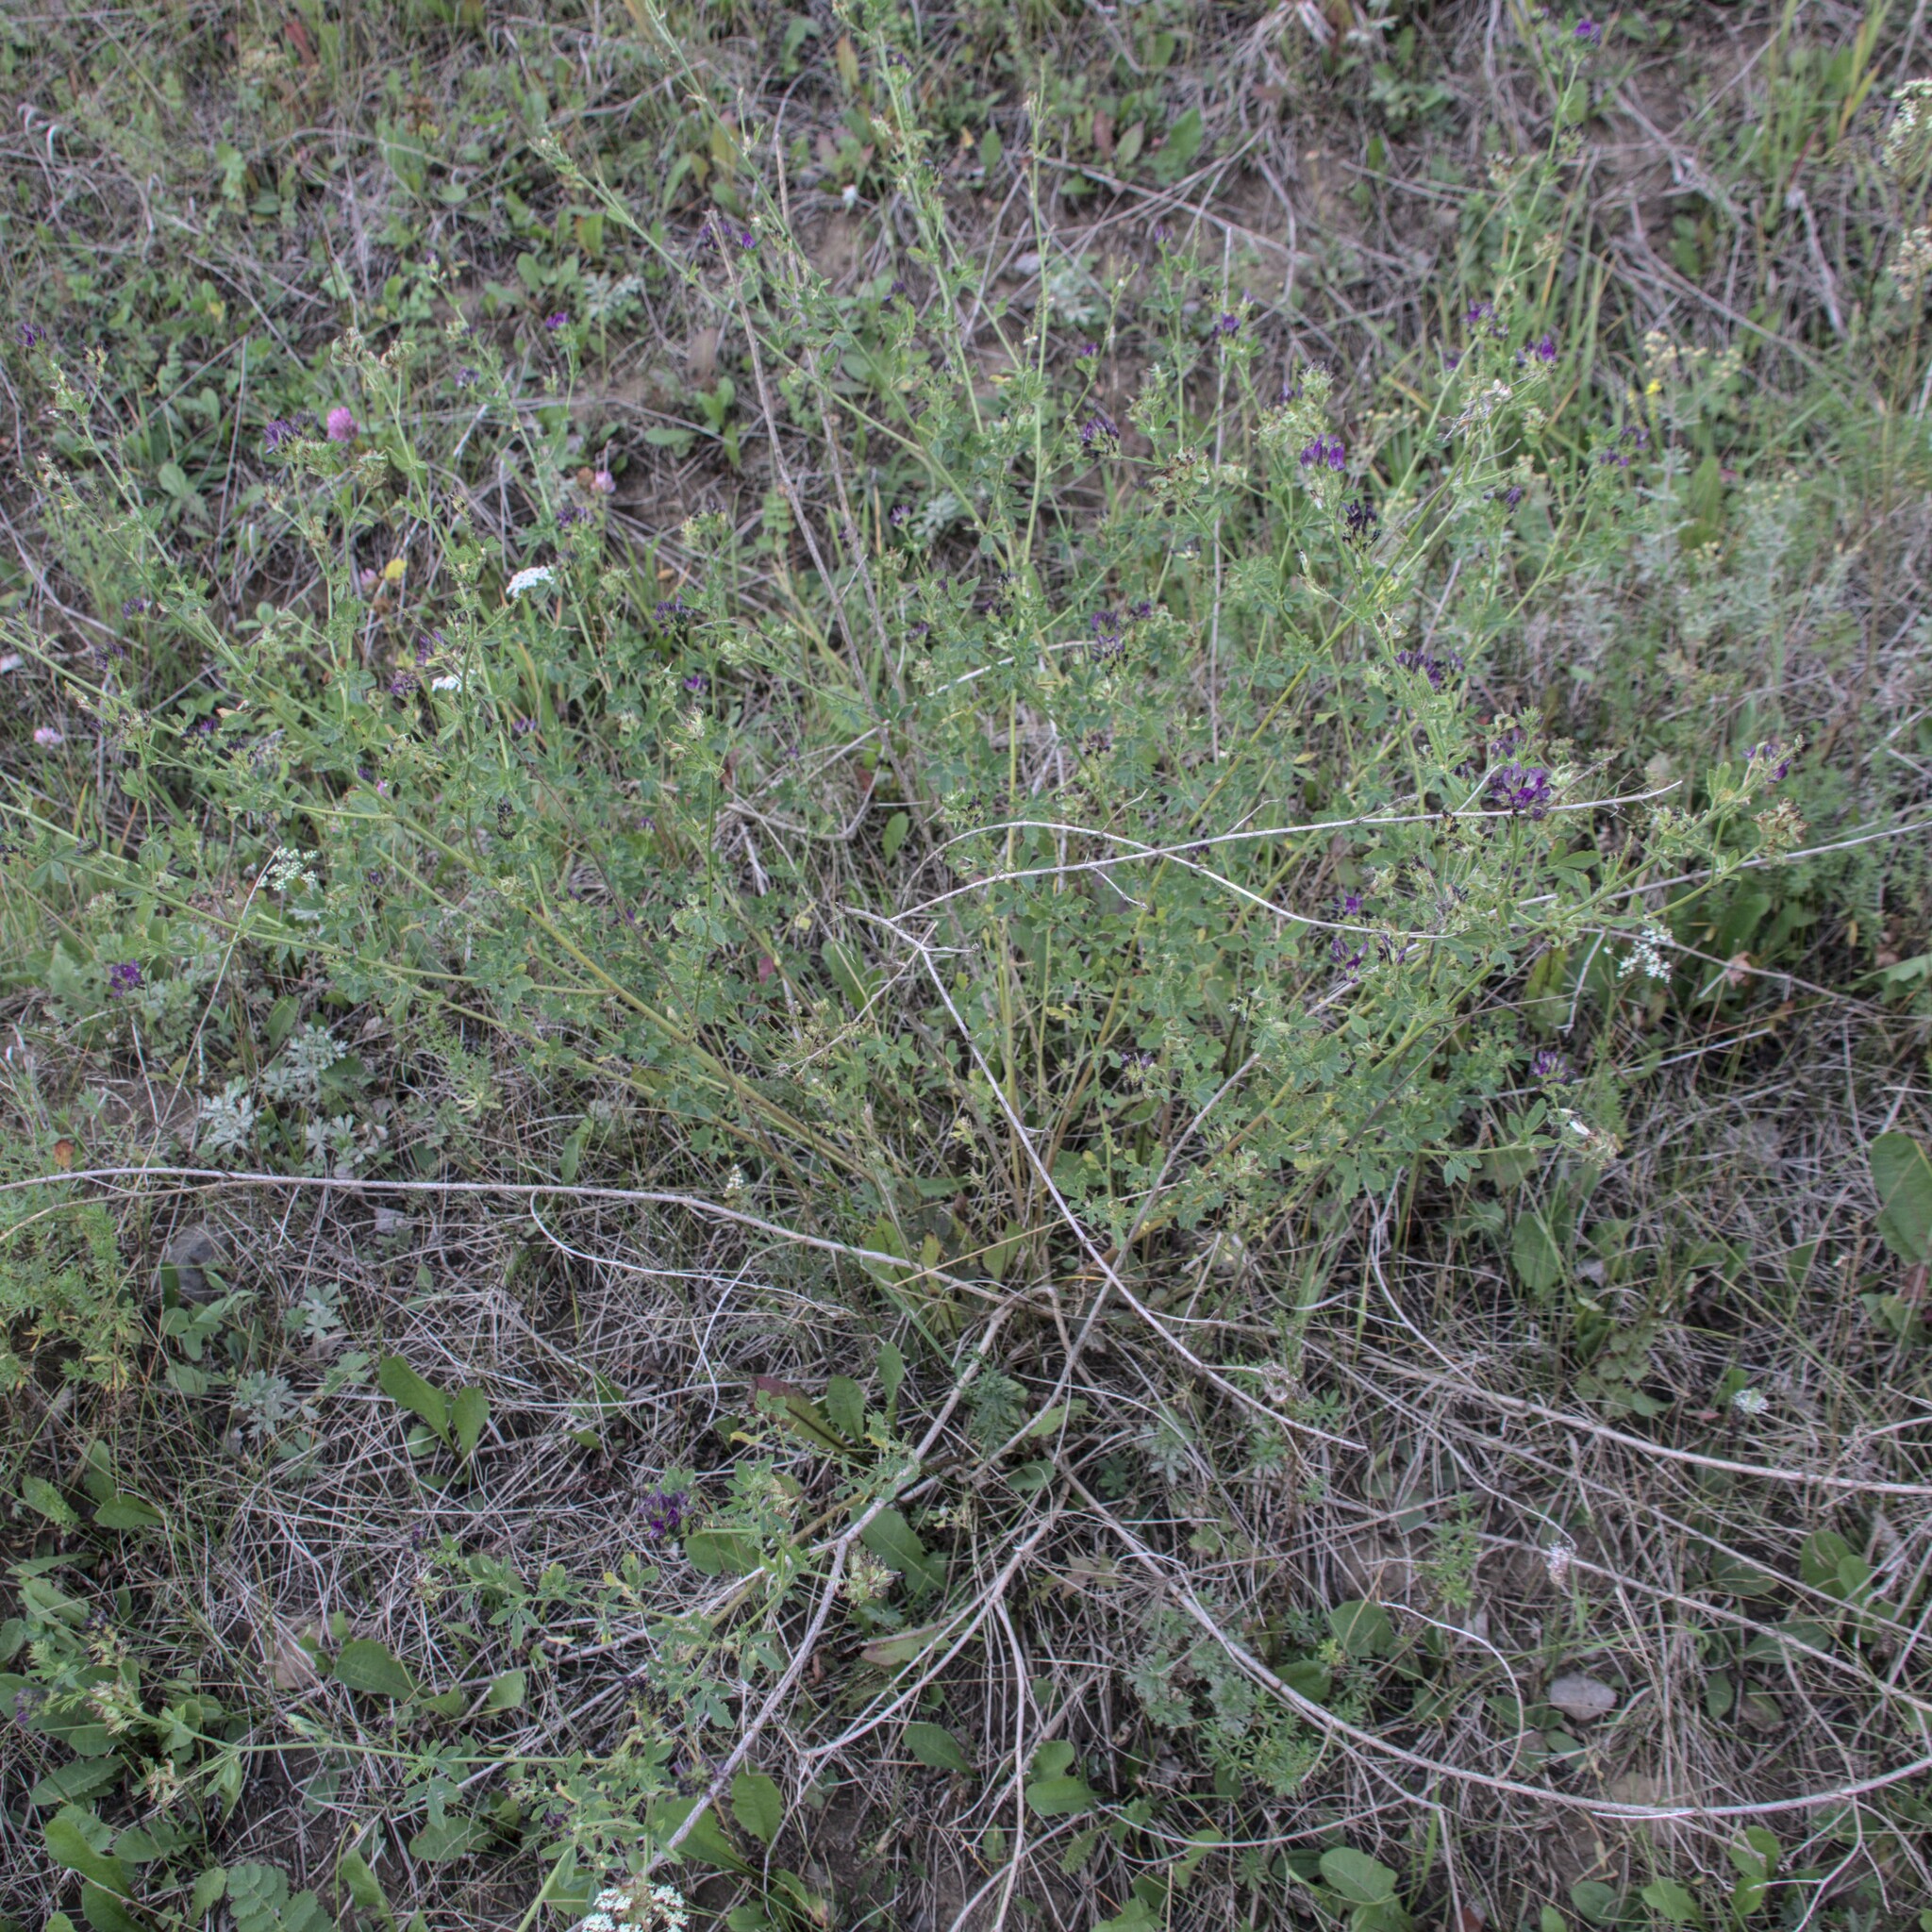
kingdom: Plantae
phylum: Tracheophyta
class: Magnoliopsida
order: Fabales
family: Fabaceae
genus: Medicago
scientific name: Medicago varia
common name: Sand lucerne
